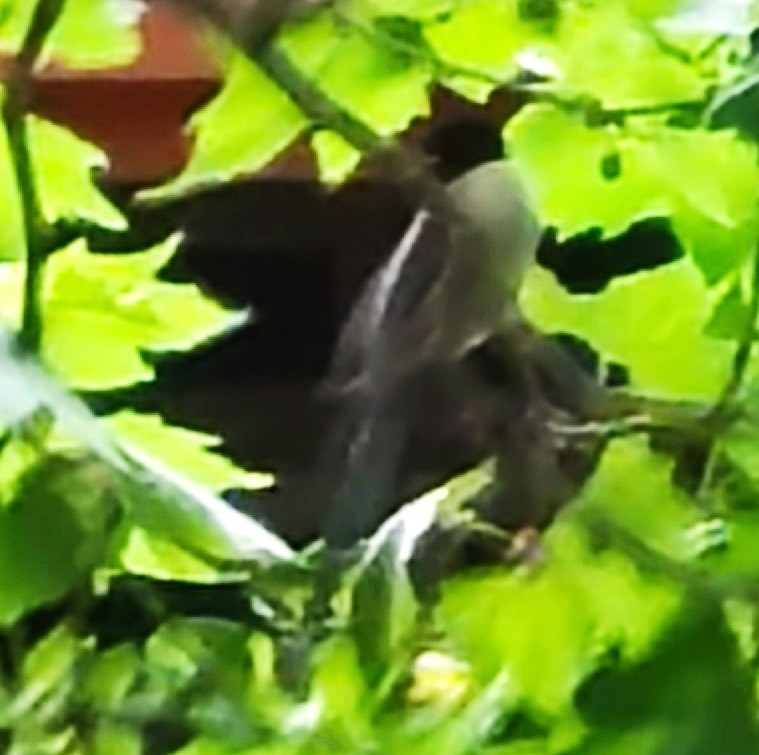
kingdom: Animalia
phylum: Chordata
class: Aves
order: Passeriformes
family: Corvidae
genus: Cyanopica
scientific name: Cyanopica cooki
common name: Iberian magpie
